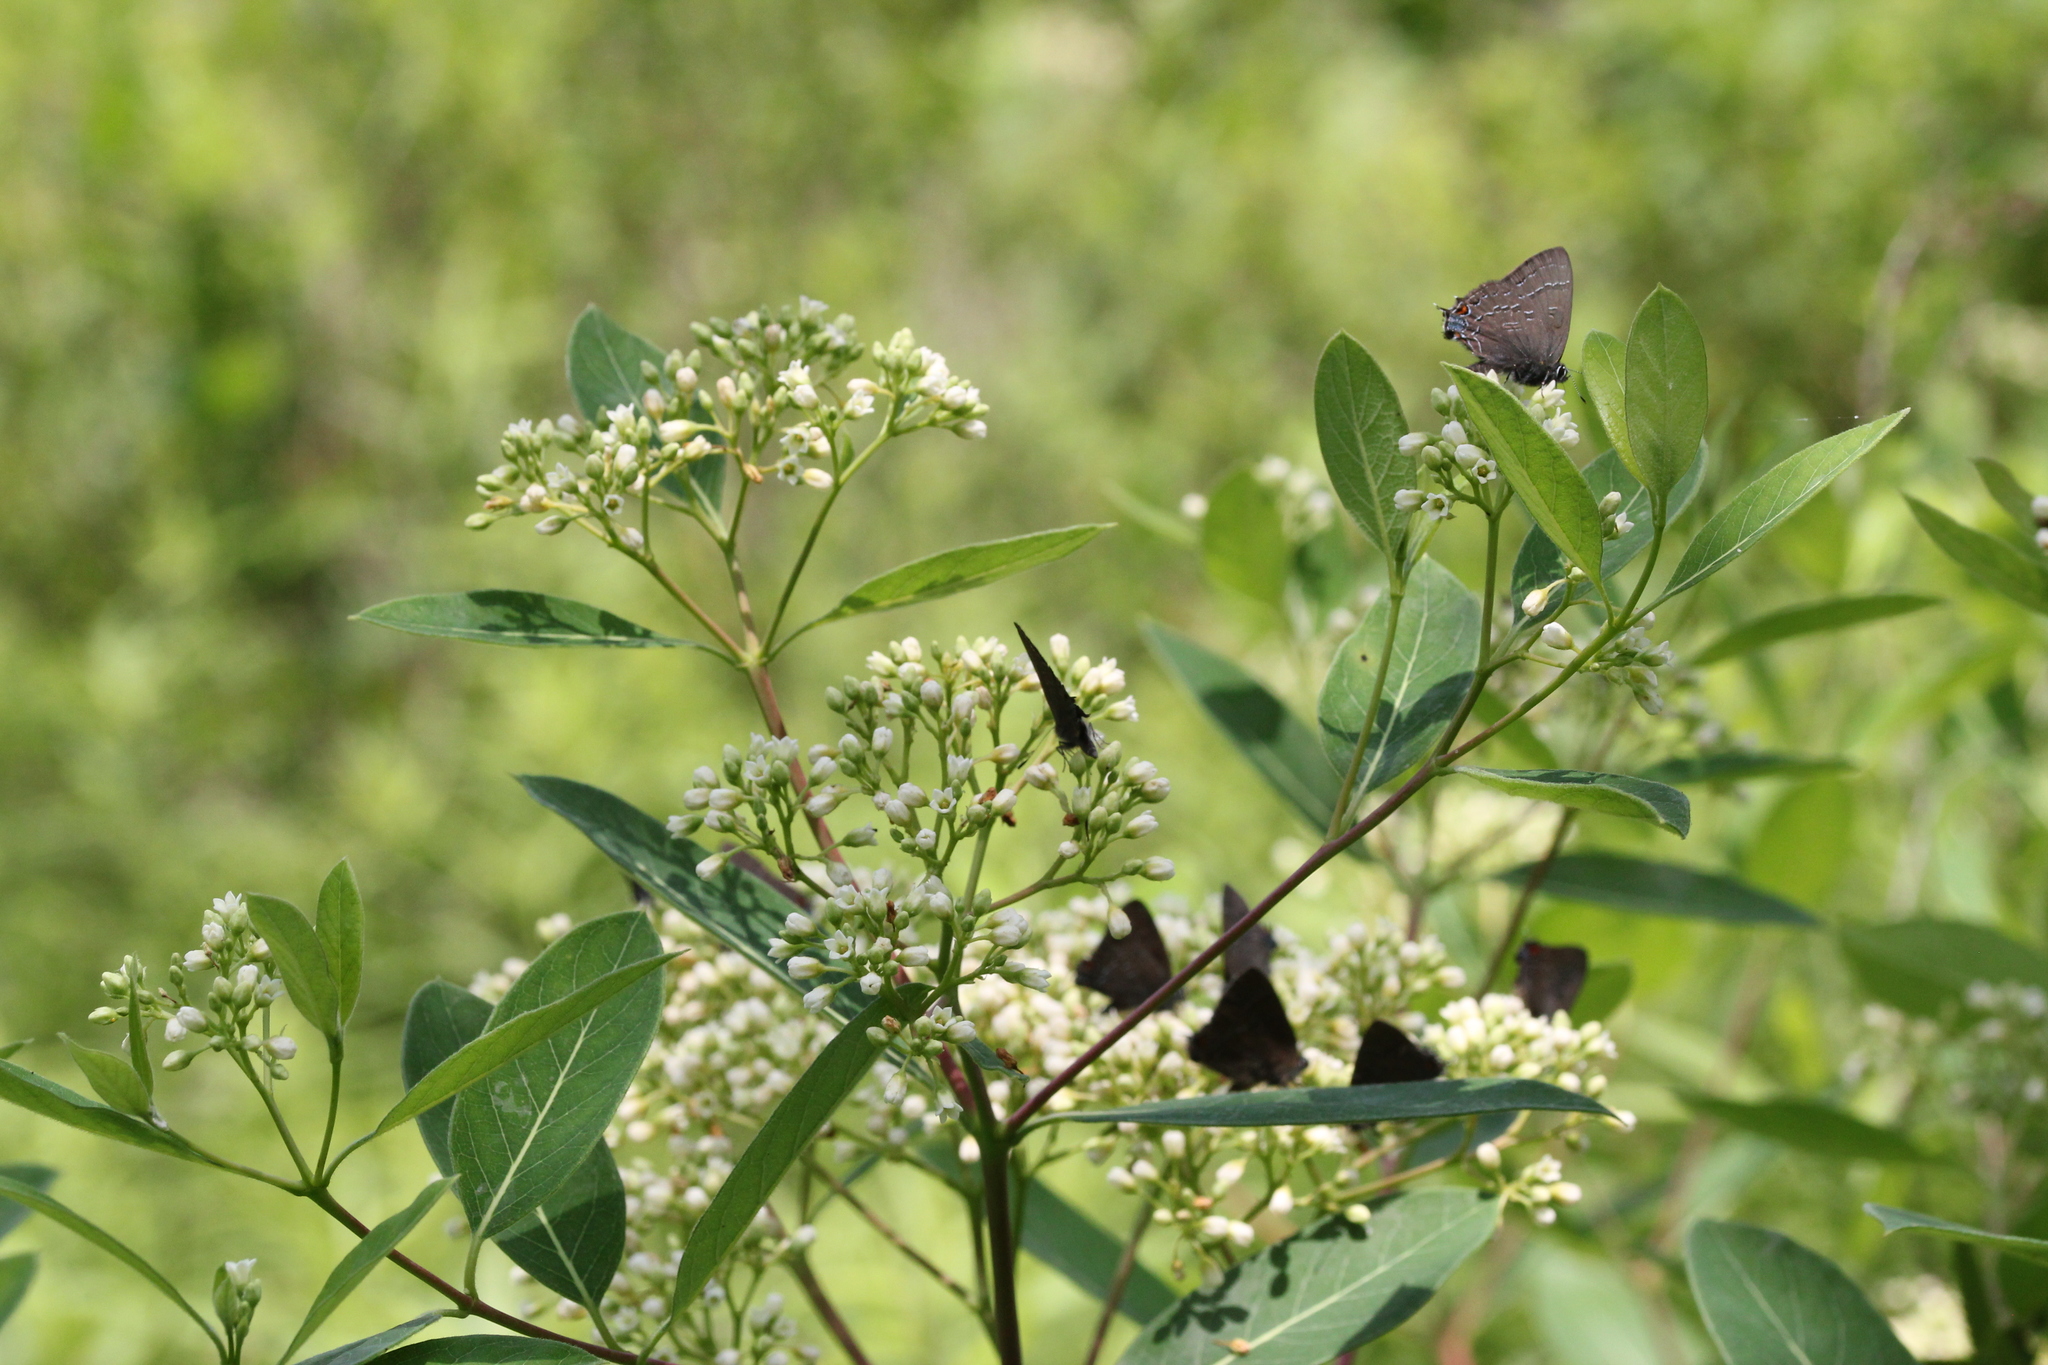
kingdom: Animalia
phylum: Arthropoda
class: Insecta
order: Lepidoptera
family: Lycaenidae
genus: Satyrium
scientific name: Satyrium calanus
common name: Banded hairstreak
